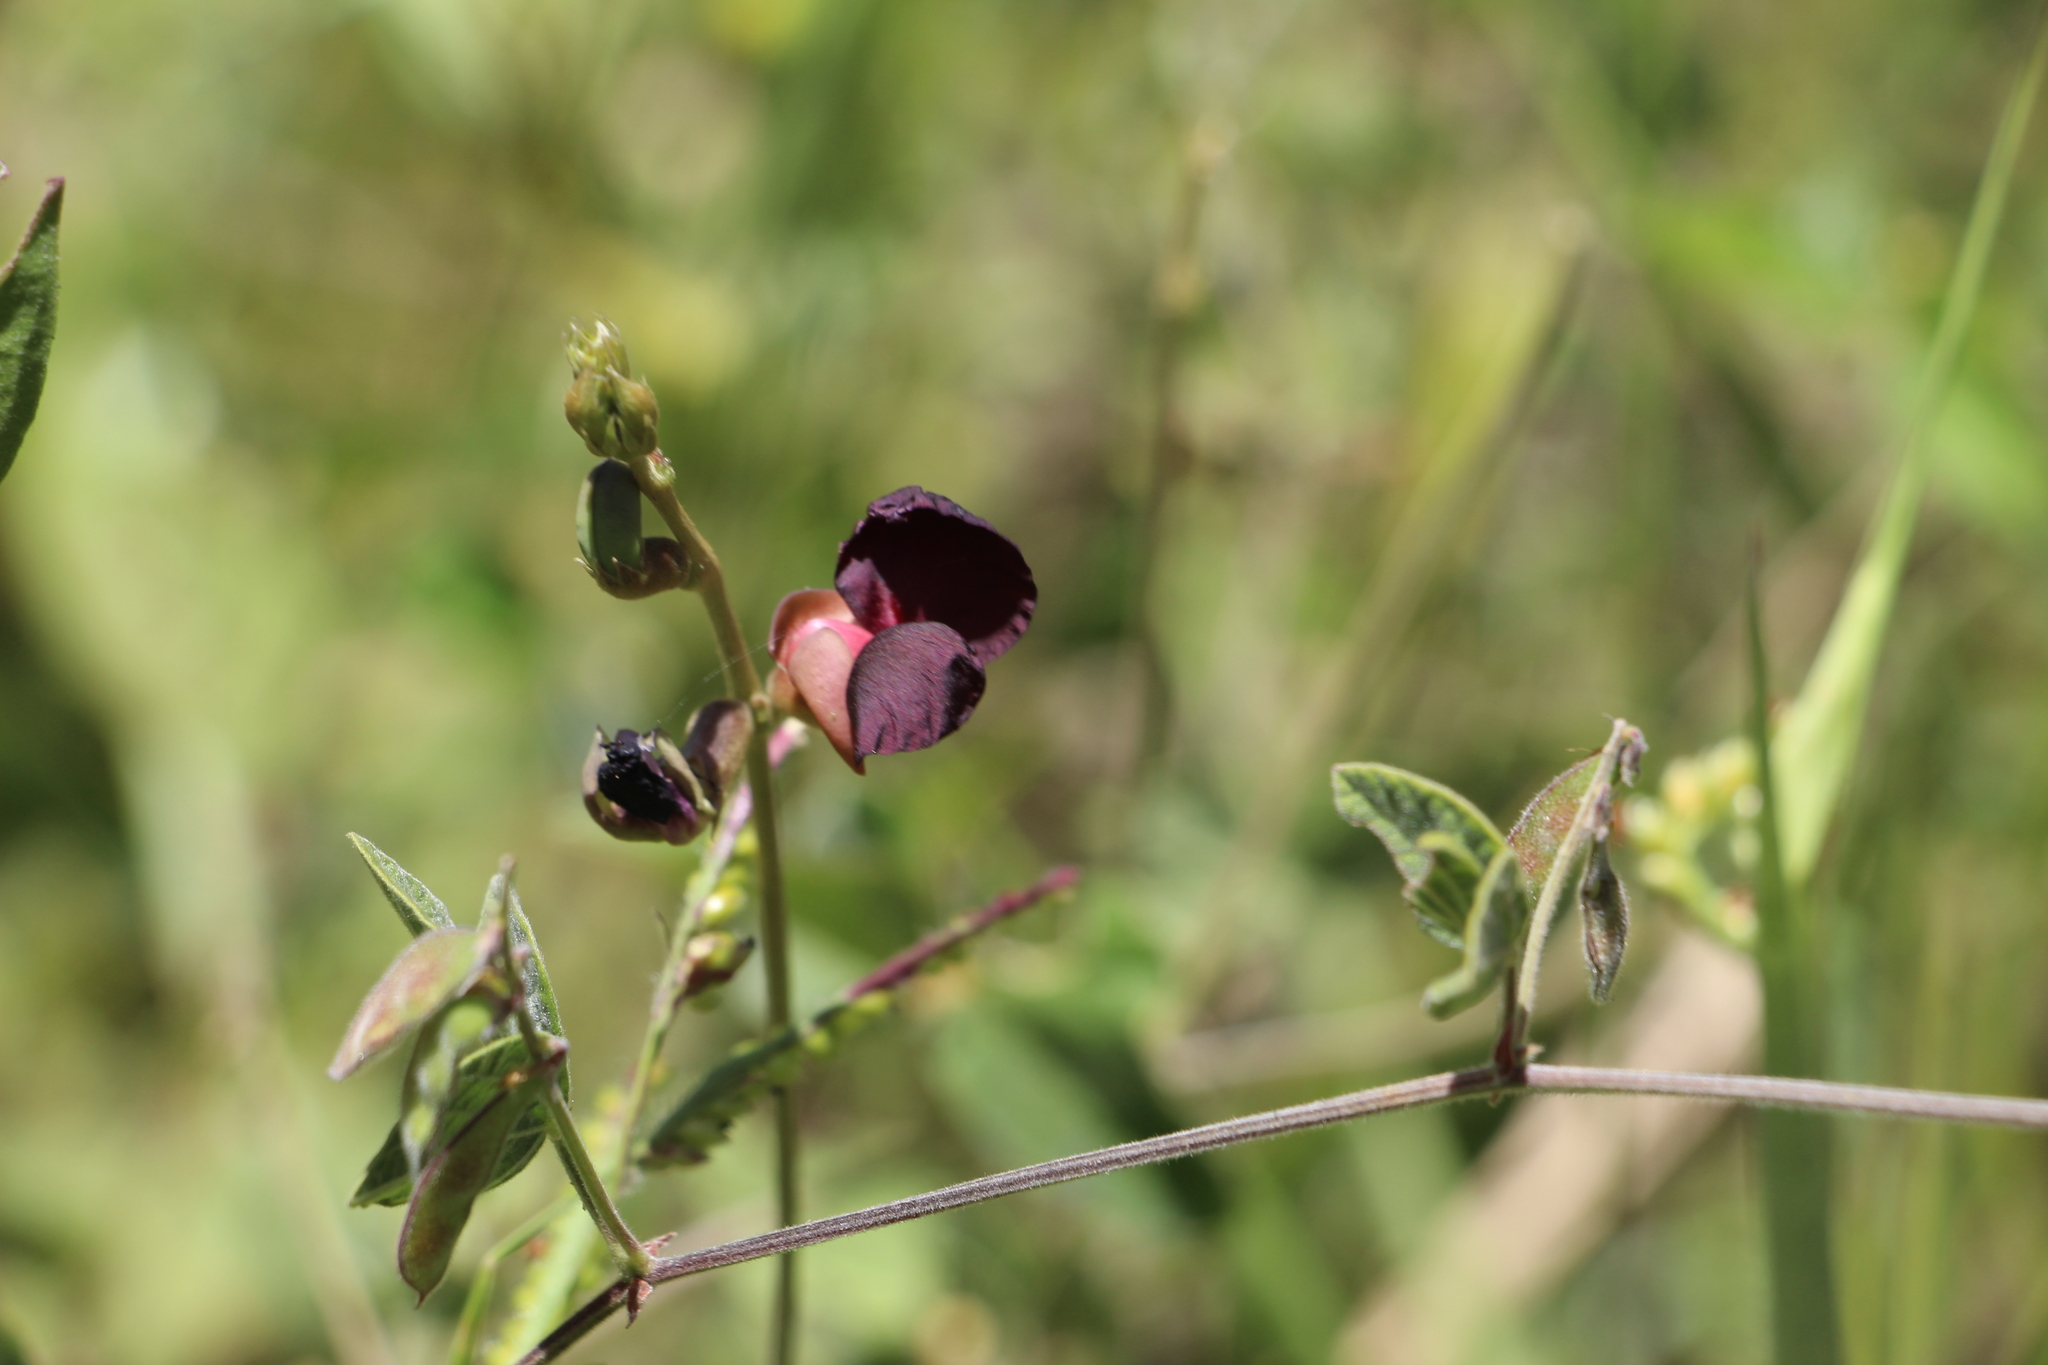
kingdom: Plantae
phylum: Tracheophyta
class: Magnoliopsida
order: Fabales
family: Fabaceae
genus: Macroptilium
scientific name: Macroptilium atropurpureum
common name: Purple bushbean
